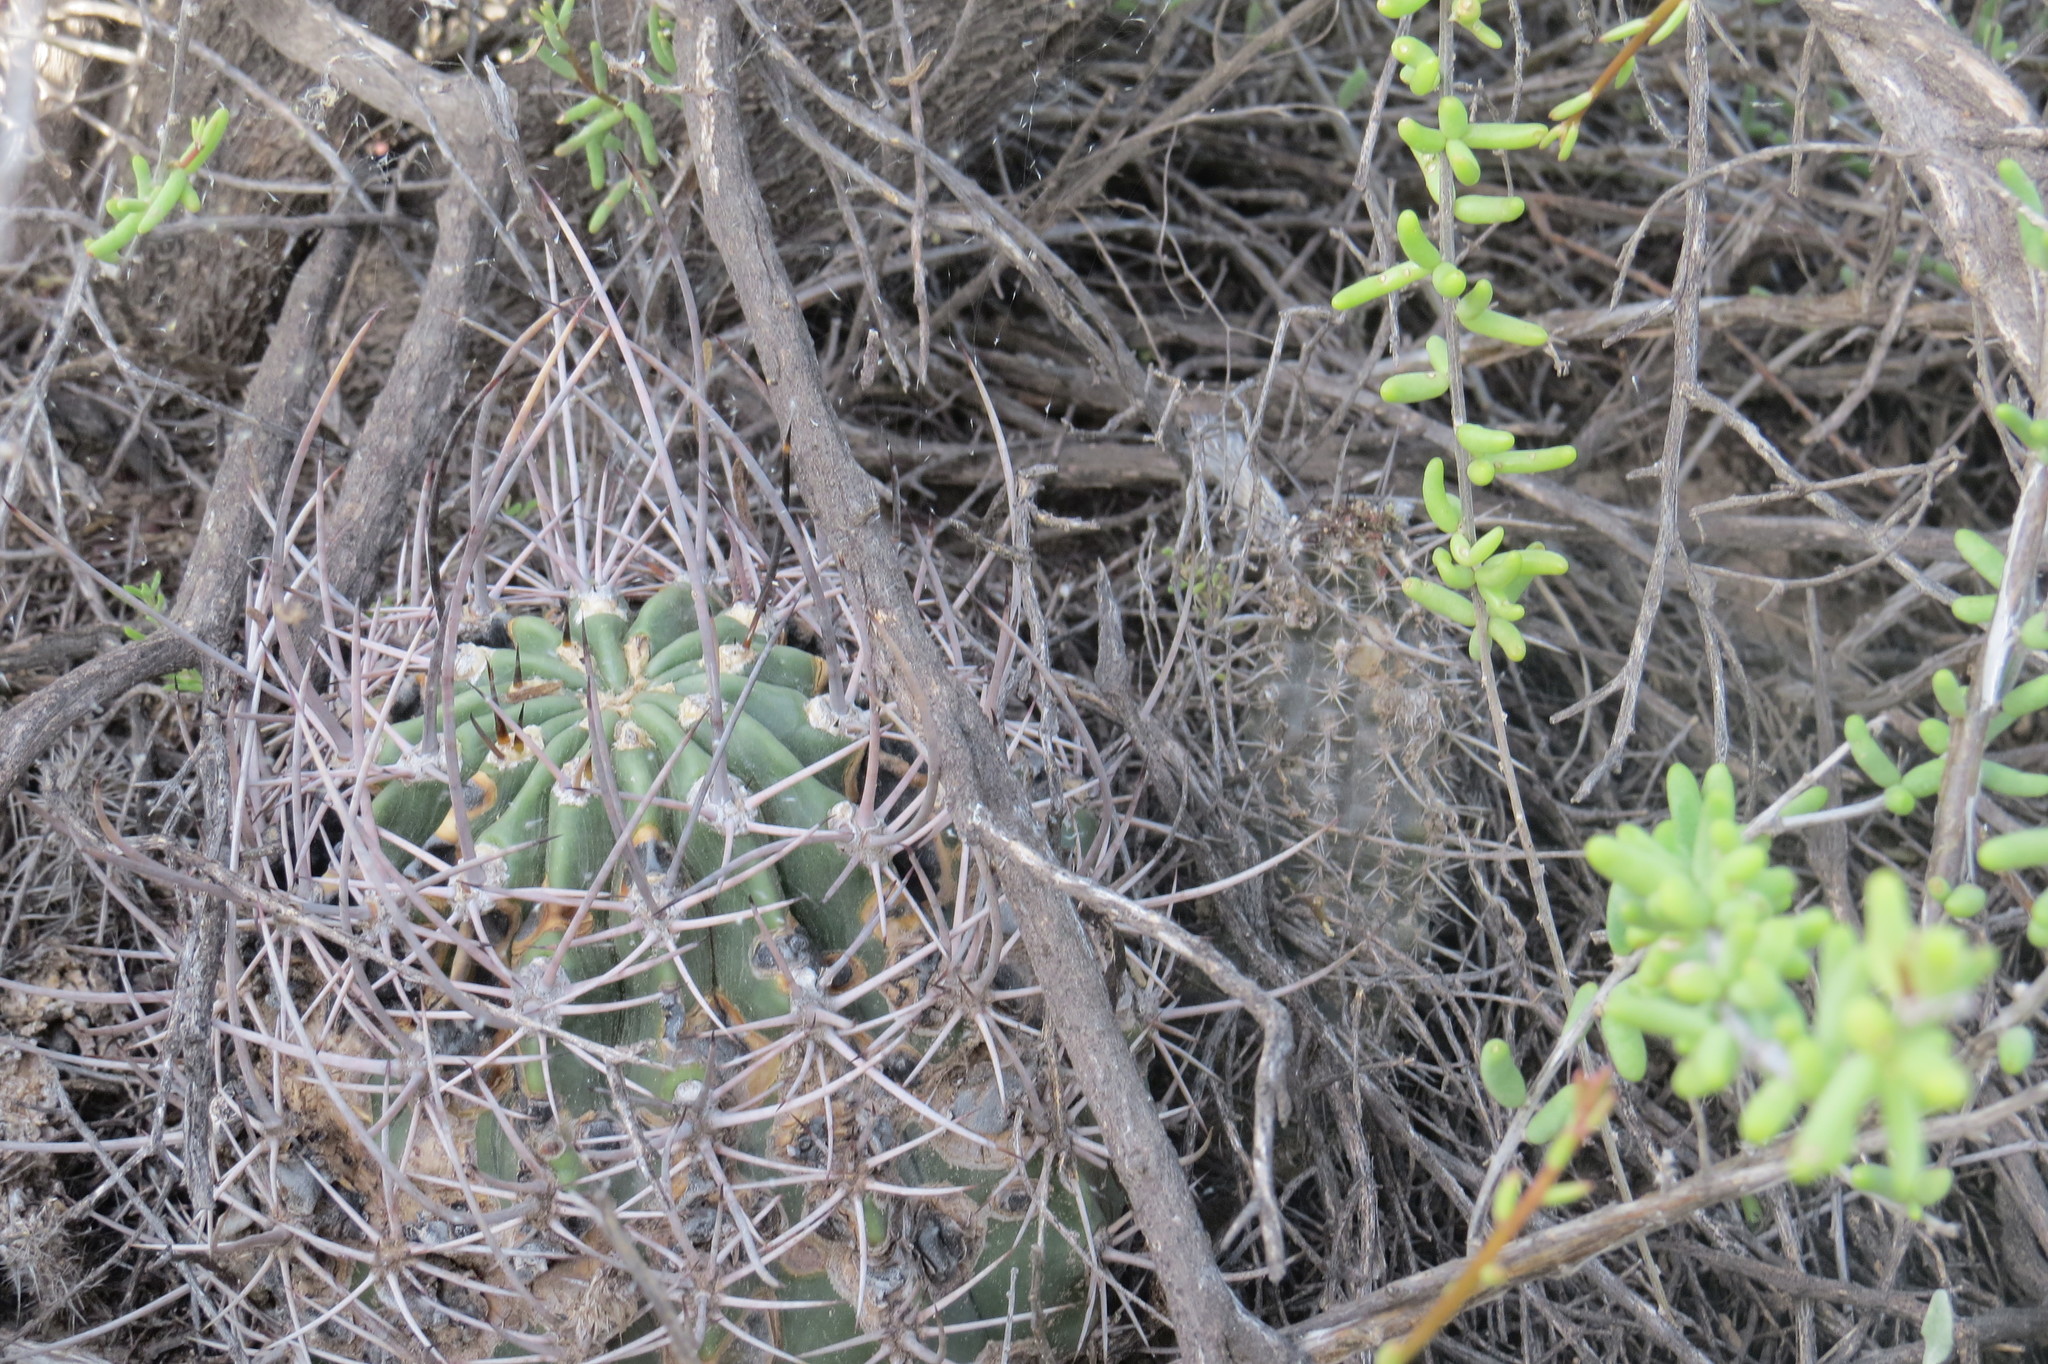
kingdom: Plantae
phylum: Tracheophyta
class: Magnoliopsida
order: Caryophyllales
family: Cactaceae
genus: Acanthocalycium
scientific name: Acanthocalycium leucanthum
